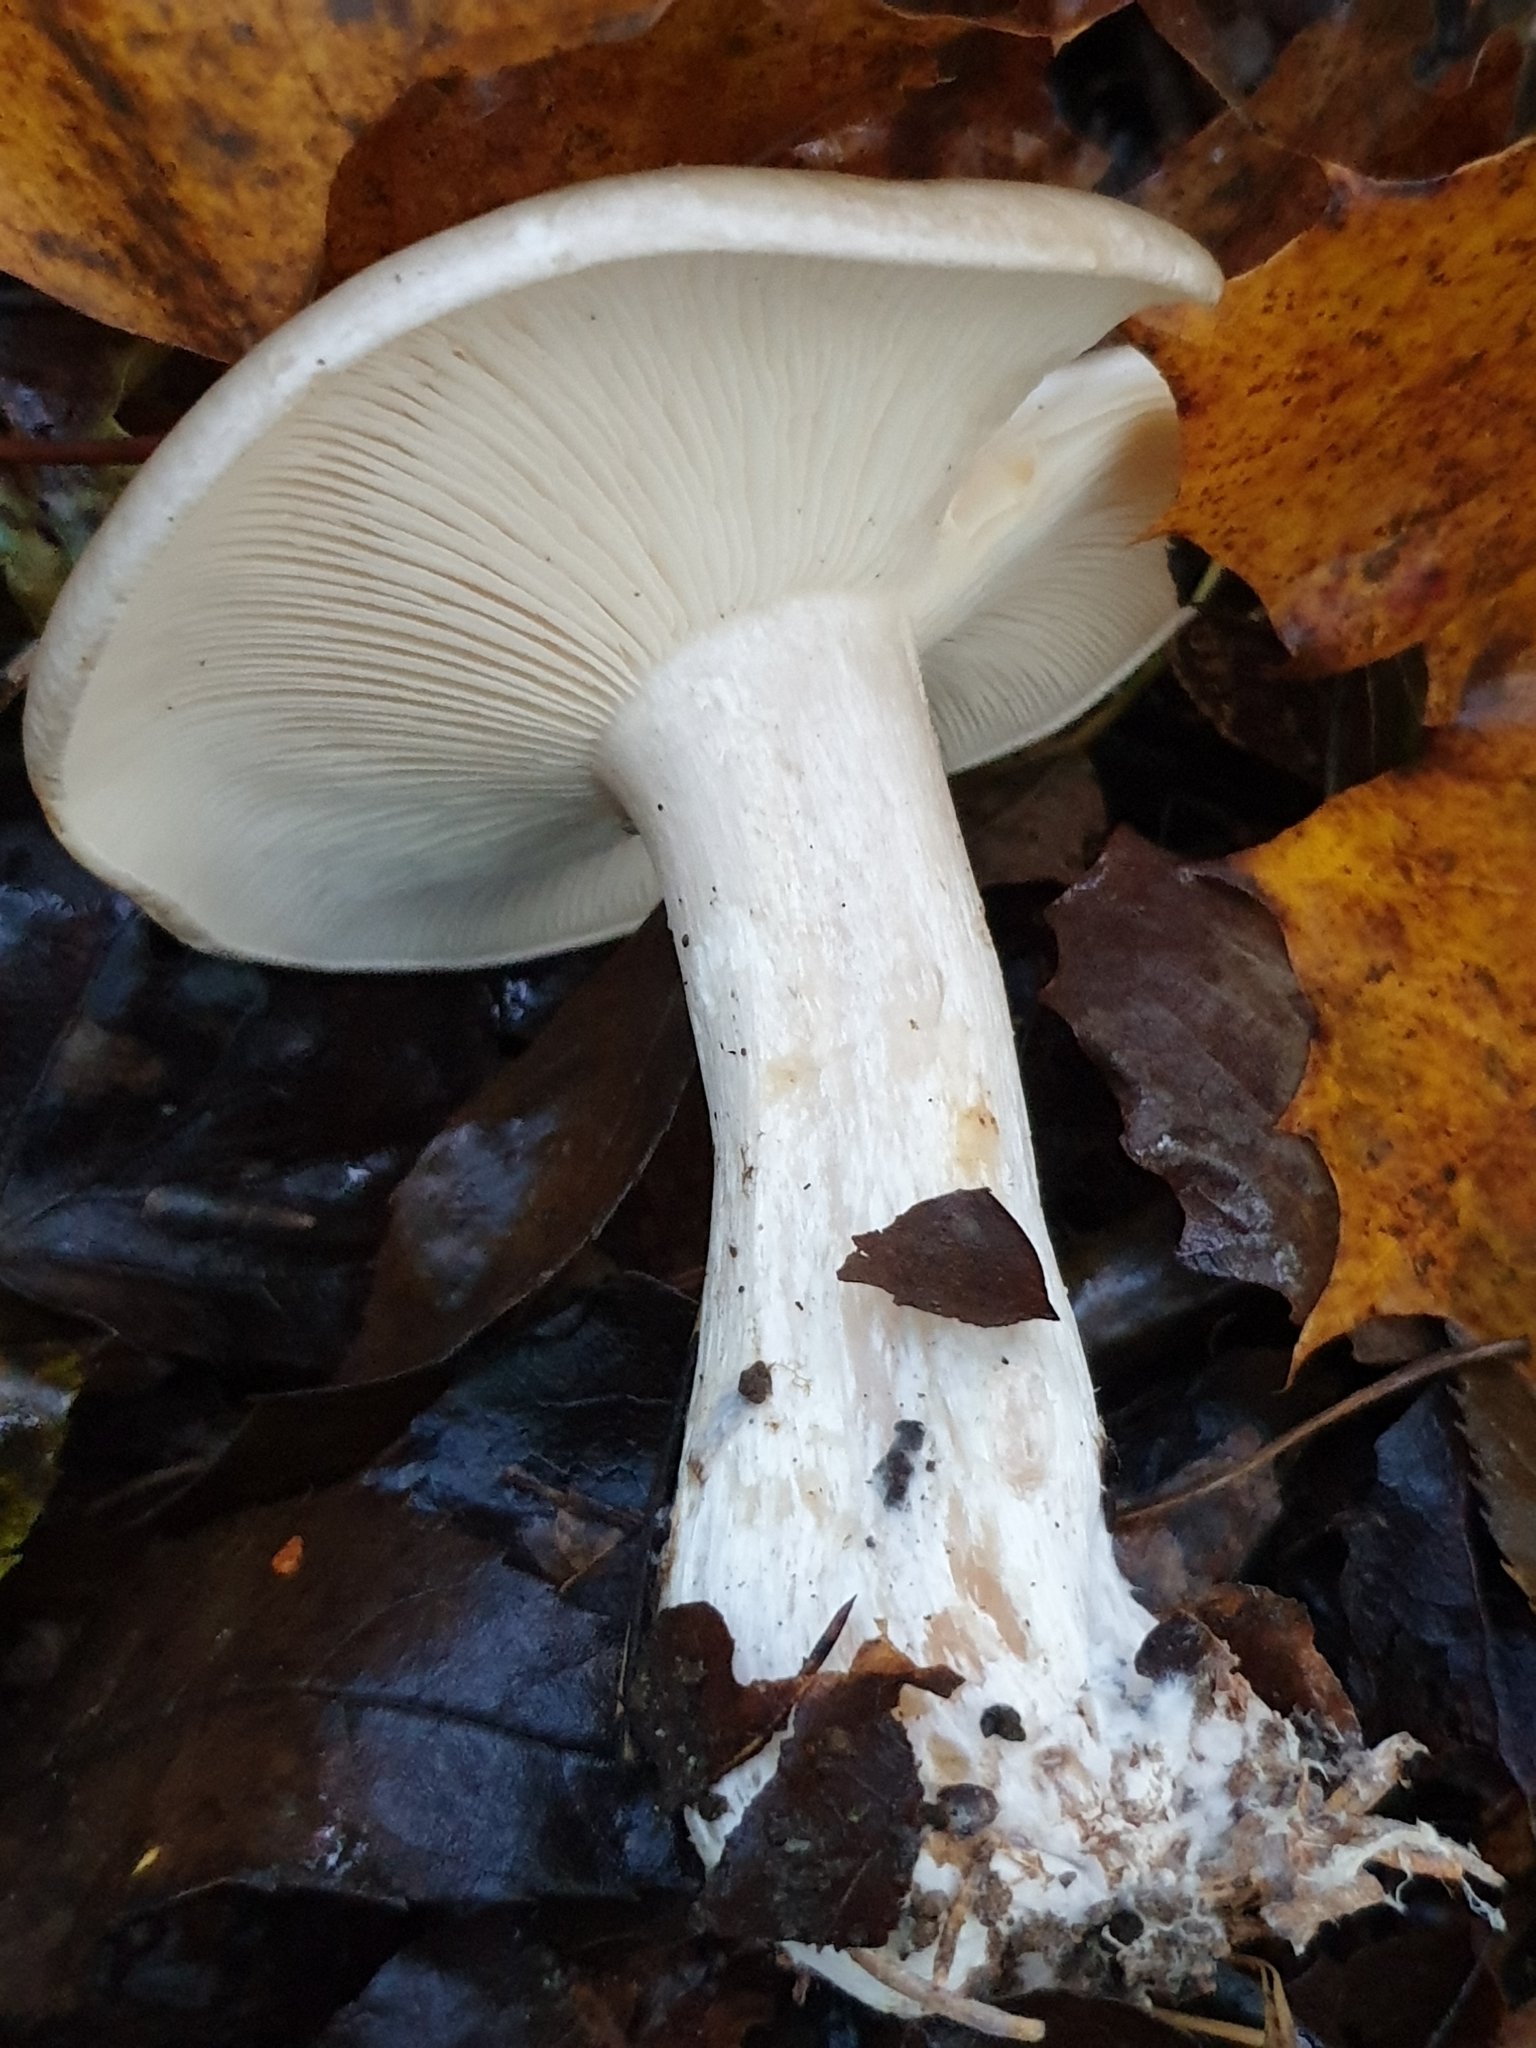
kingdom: Fungi
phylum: Basidiomycota
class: Agaricomycetes
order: Agaricales
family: Tricholomataceae
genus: Clitocybe
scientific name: Clitocybe nebularis
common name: Clouded agaric
